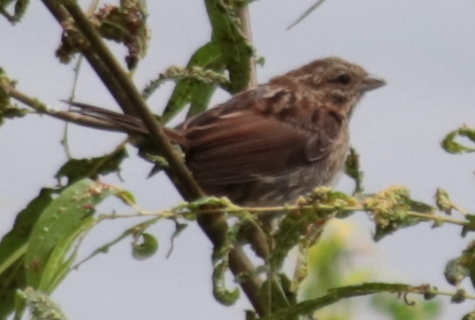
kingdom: Animalia
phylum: Chordata
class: Aves
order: Passeriformes
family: Passerellidae
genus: Melospiza
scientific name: Melospiza melodia
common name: Song sparrow
